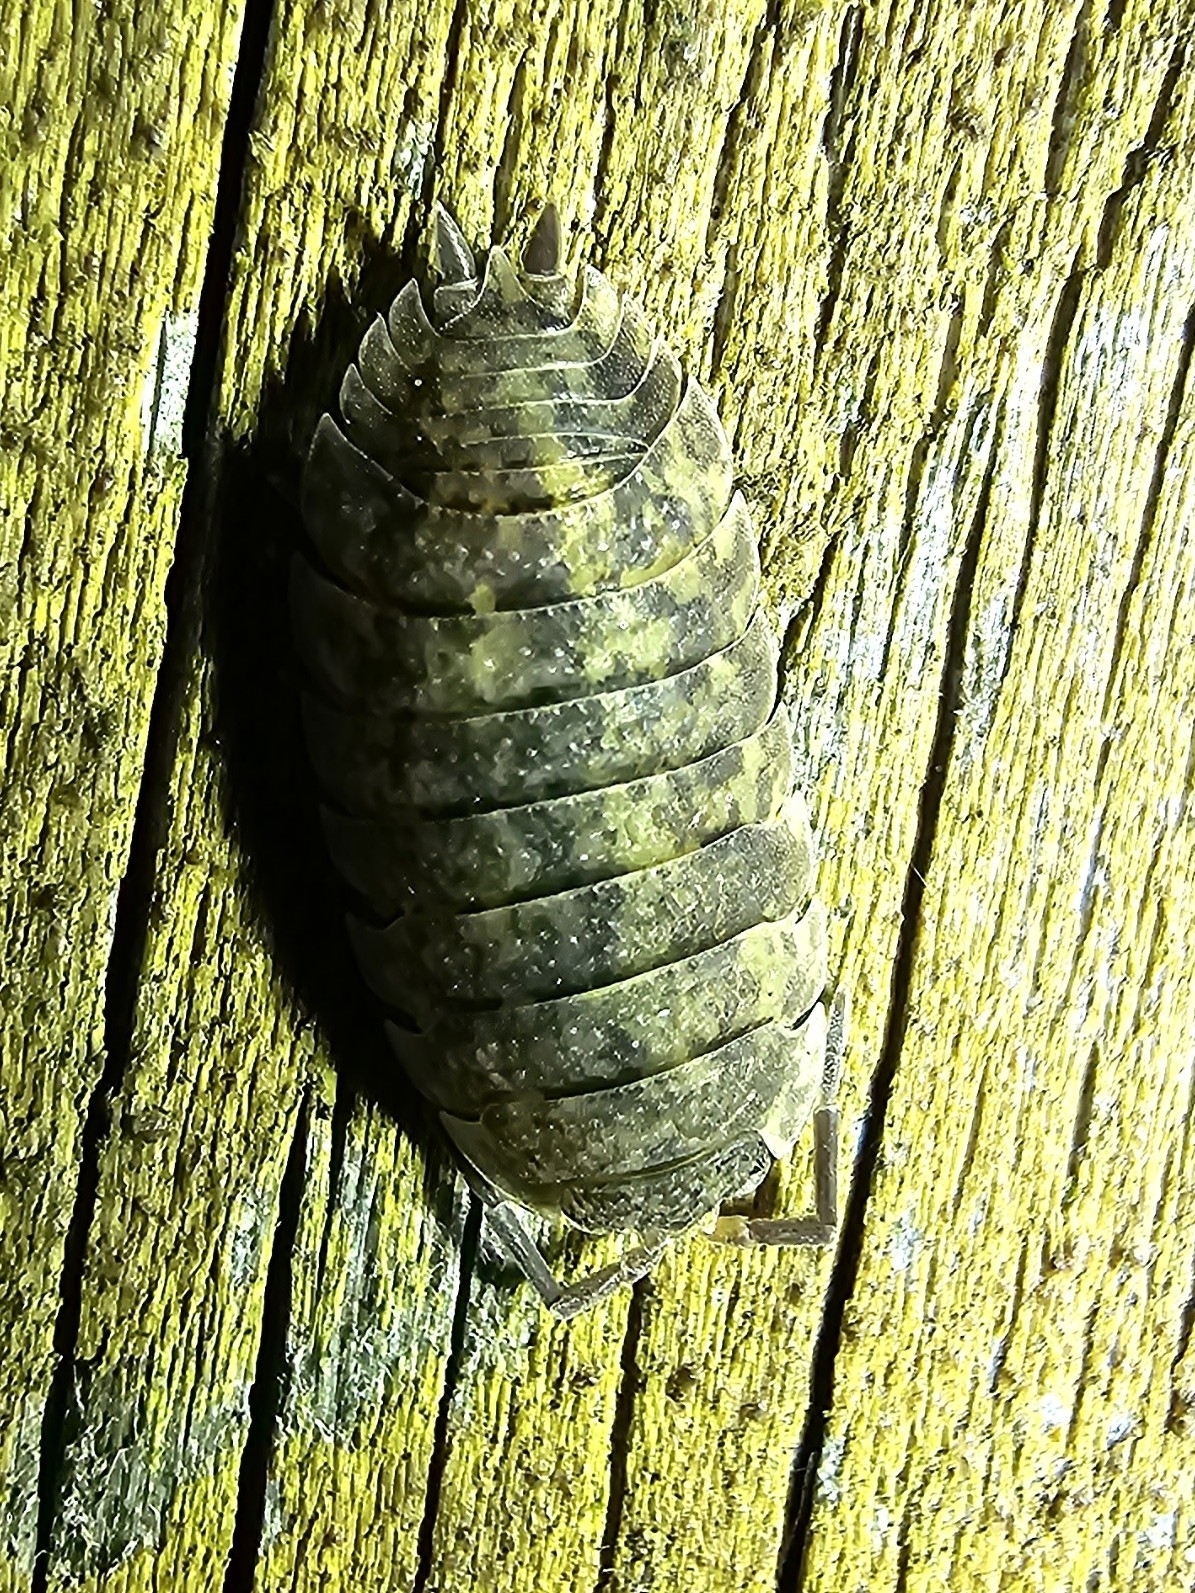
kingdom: Animalia
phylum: Arthropoda
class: Malacostraca
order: Isopoda
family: Porcellionidae
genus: Porcellio
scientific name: Porcellio scaber
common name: Common rough woodlouse
